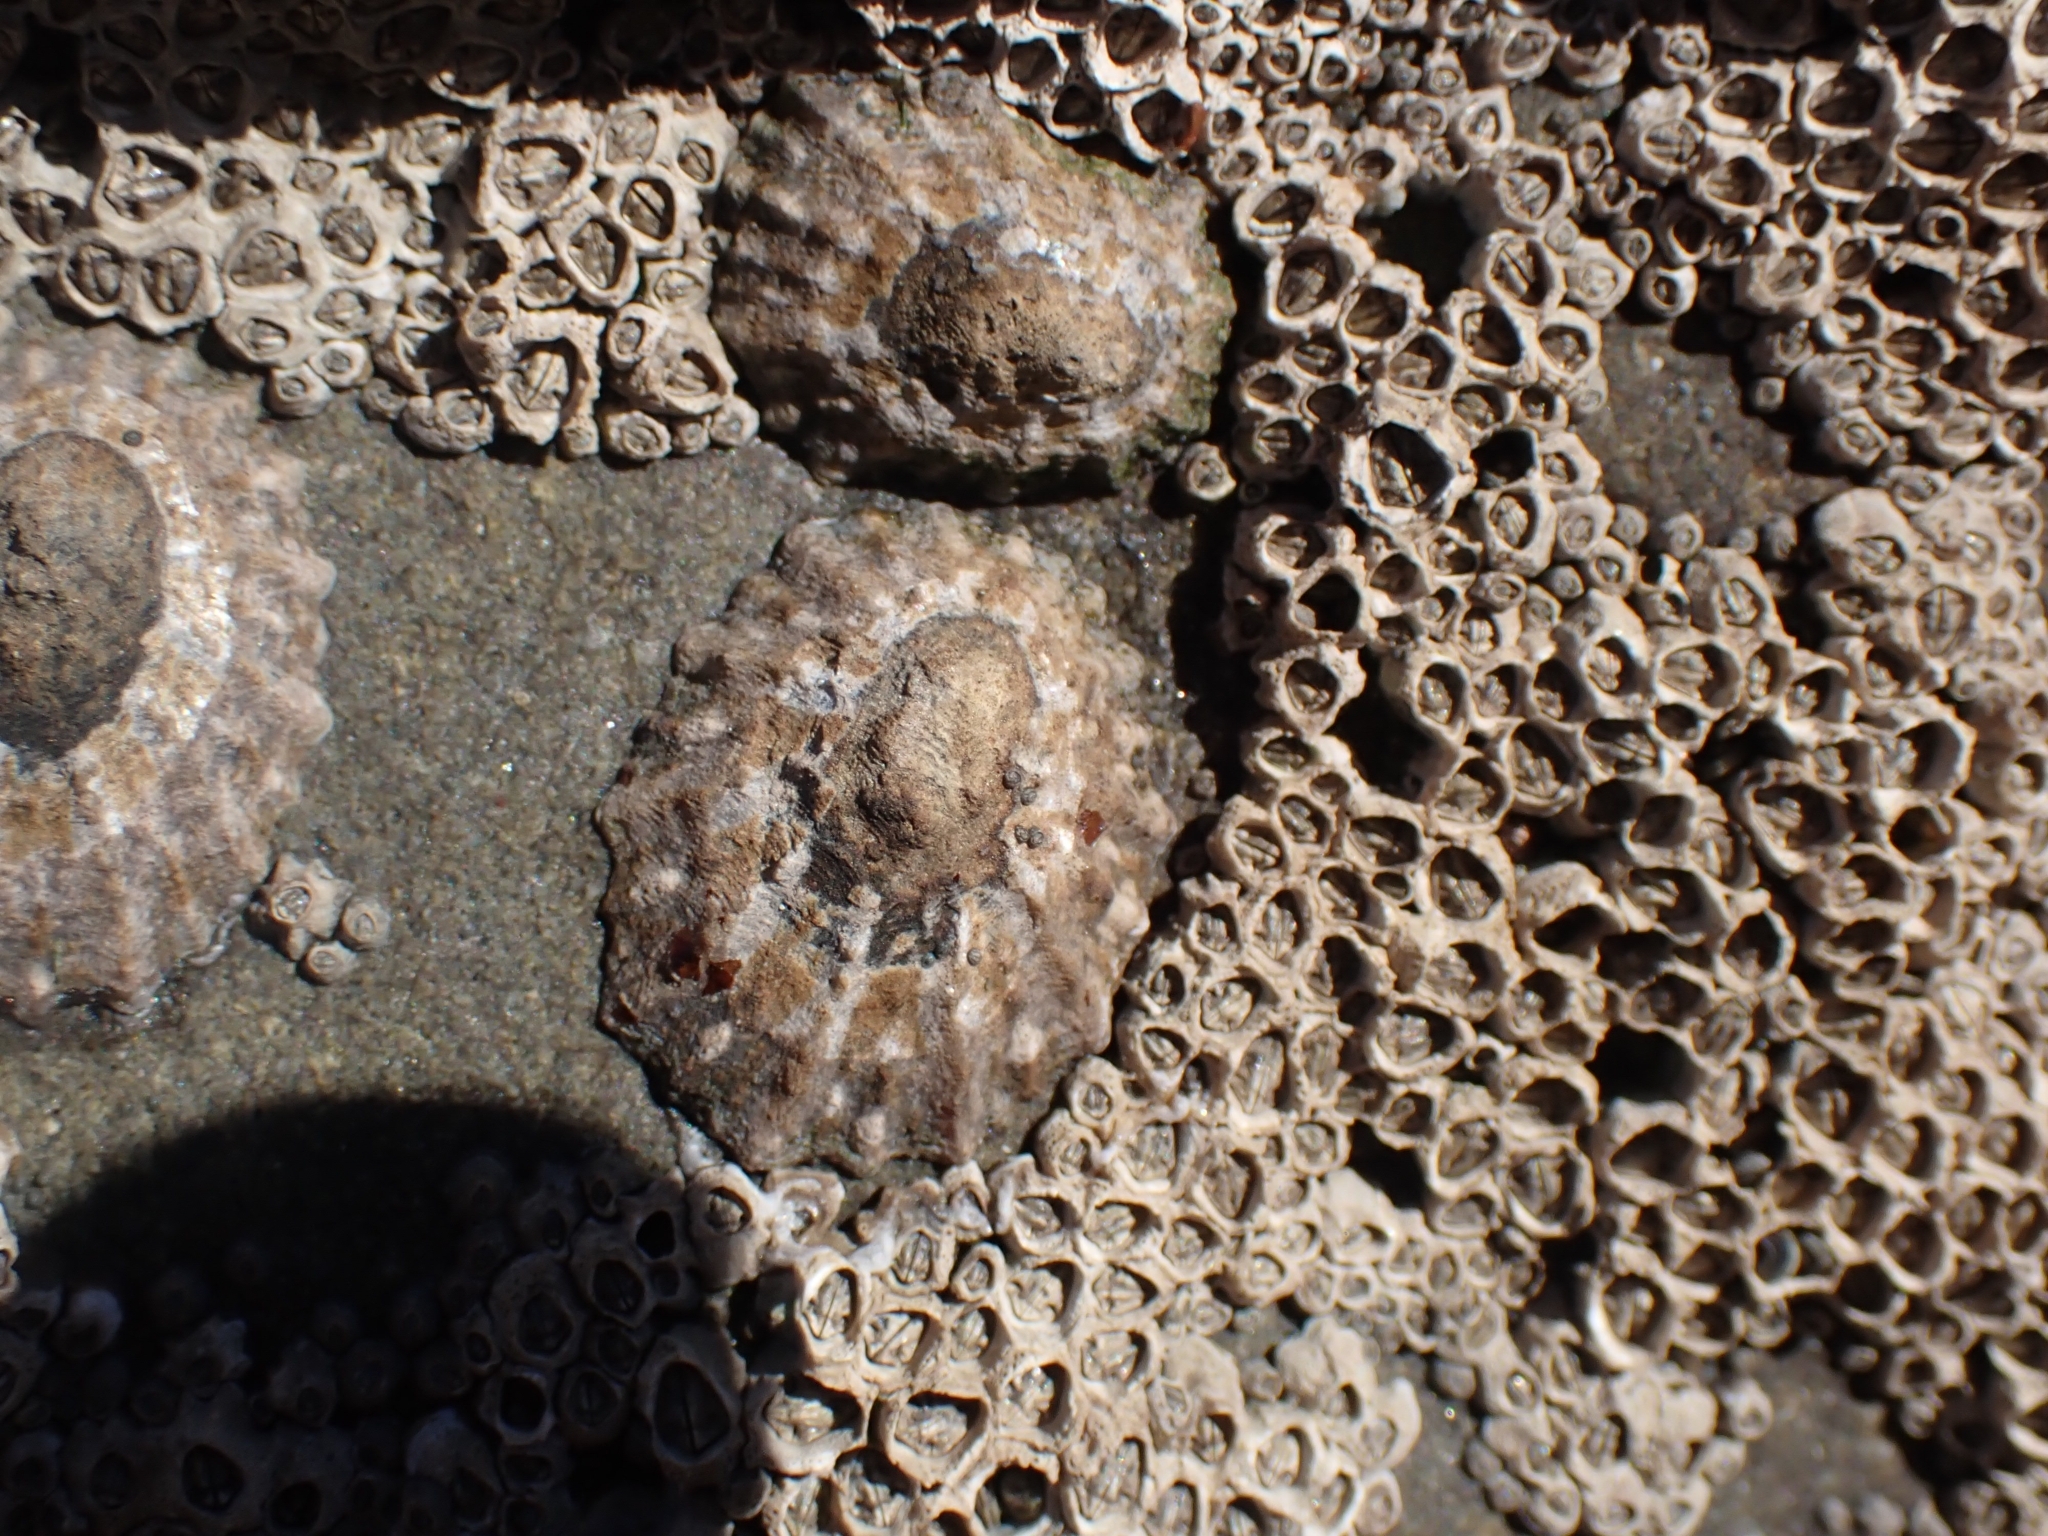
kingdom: Animalia
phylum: Mollusca
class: Gastropoda
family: Nacellidae
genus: Cellana
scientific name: Cellana ornata
